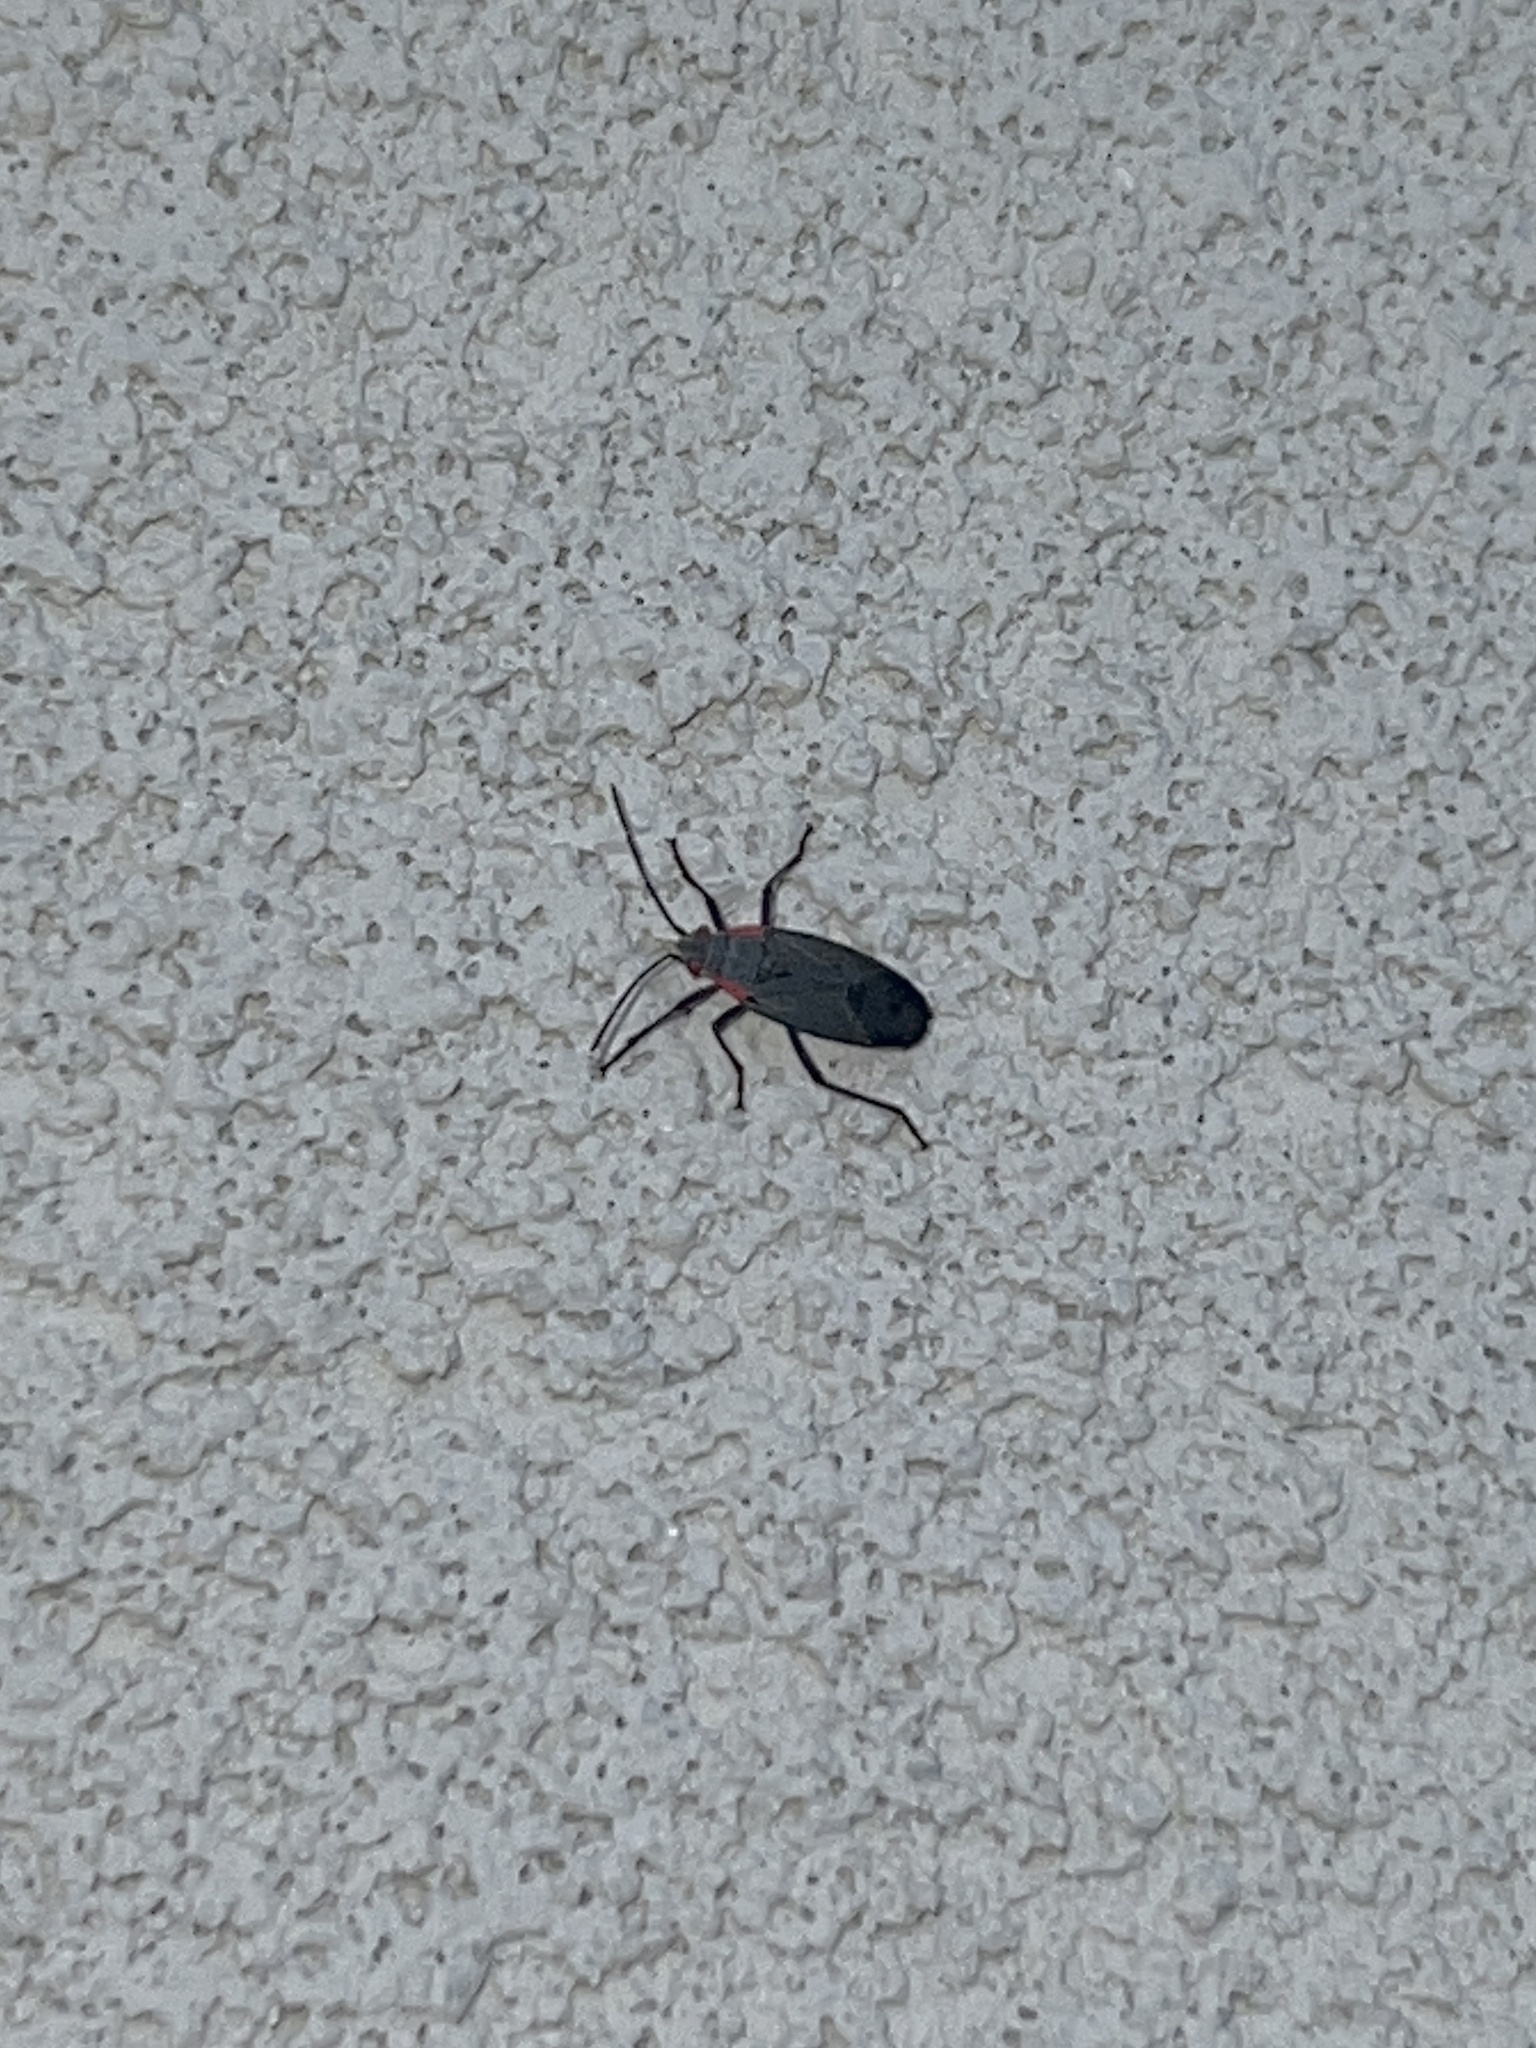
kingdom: Animalia
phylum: Arthropoda
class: Insecta
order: Hemiptera
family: Rhopalidae
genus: Jadera
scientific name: Jadera haematoloma
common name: Red-shouldered bug
